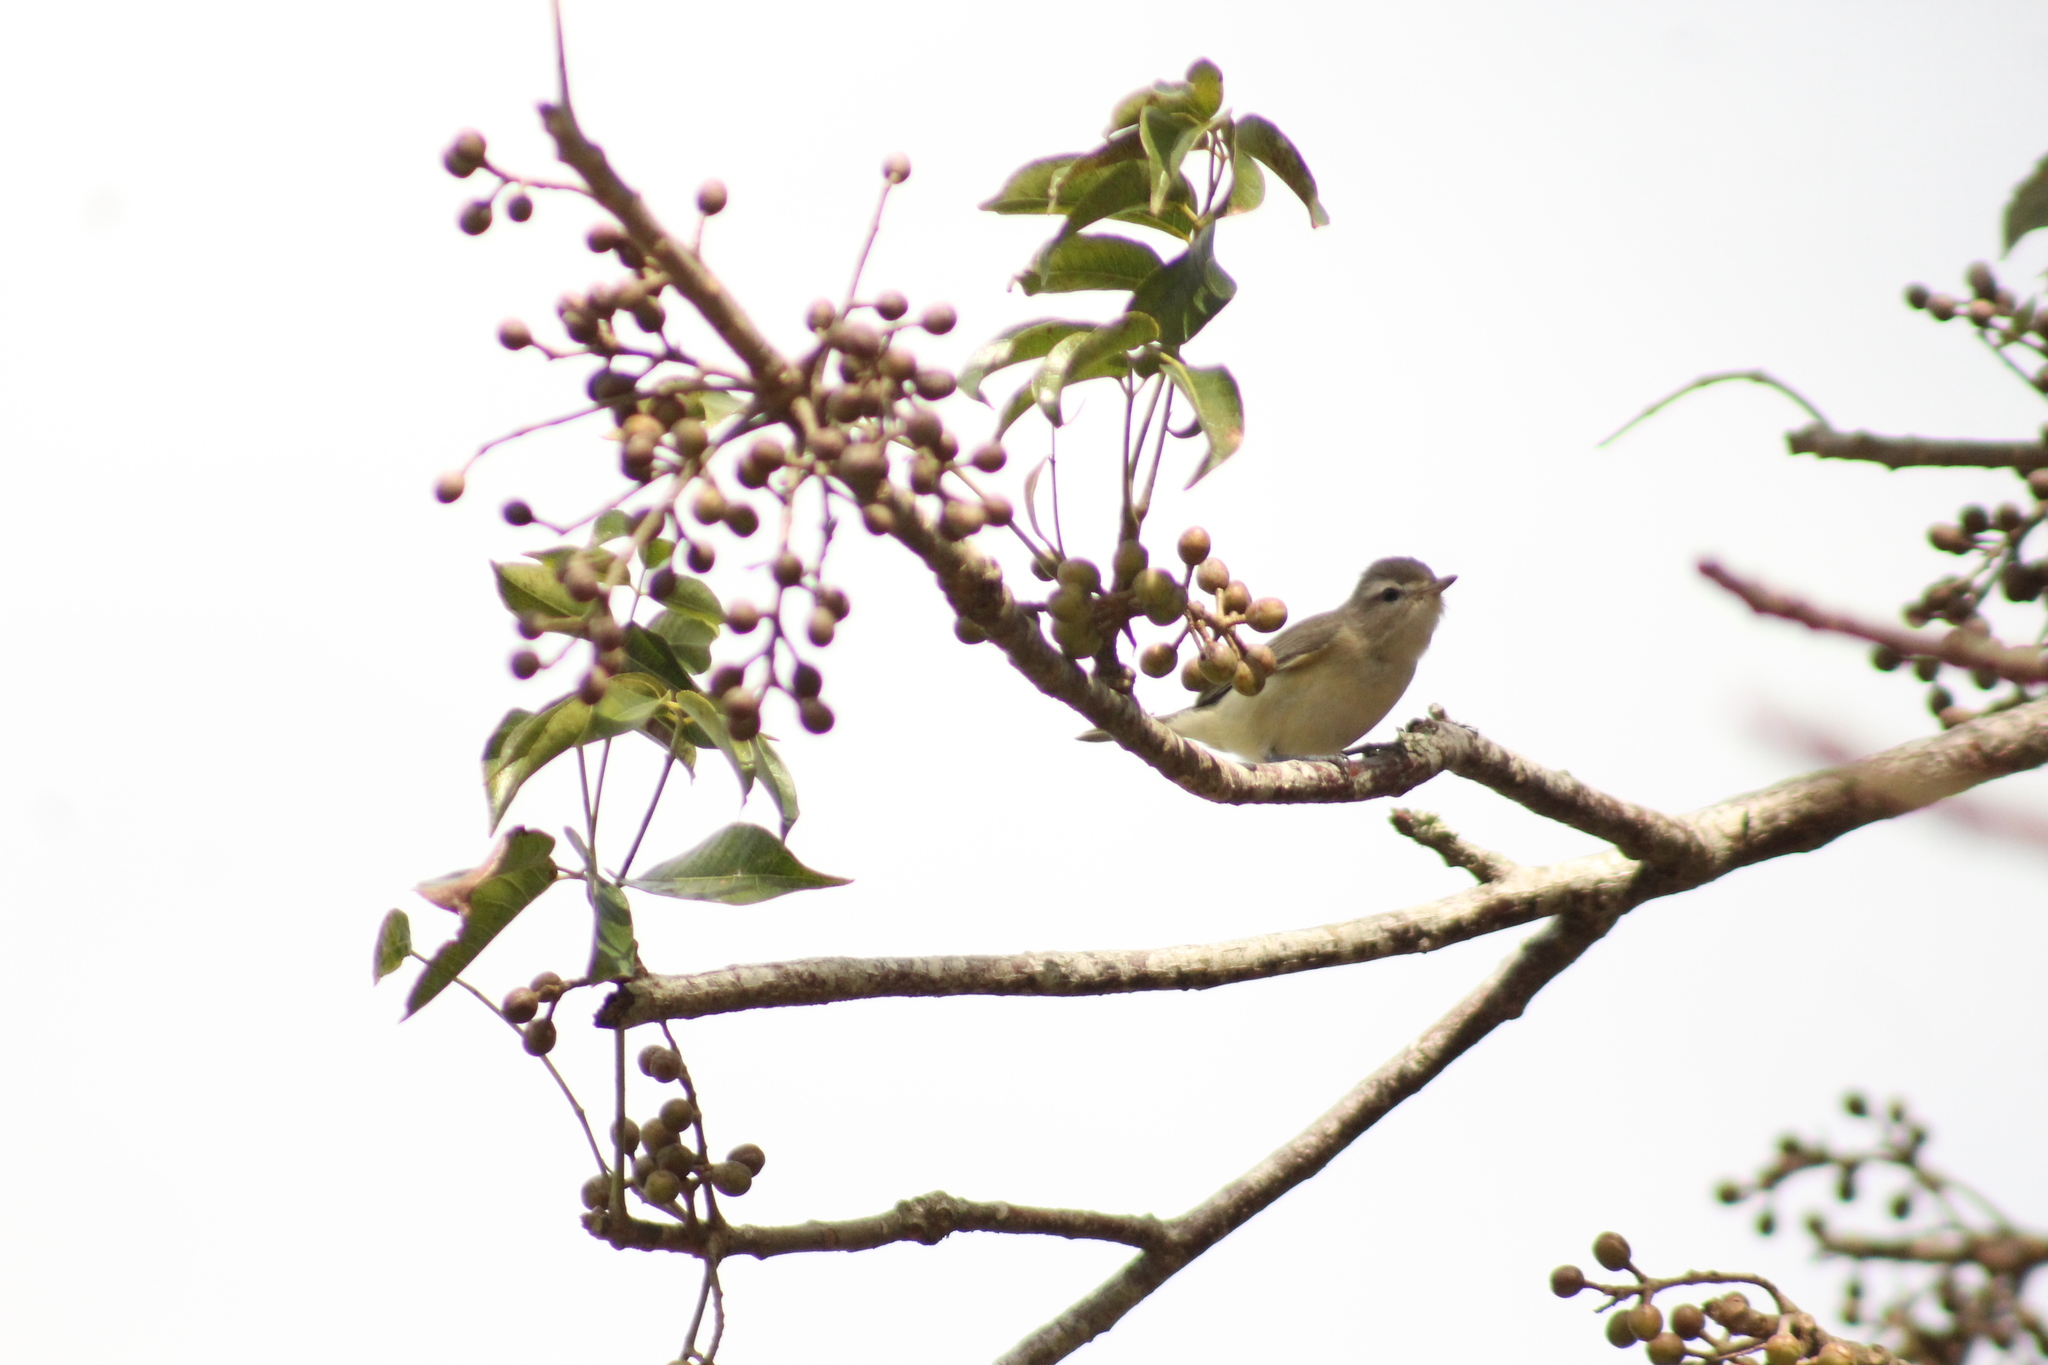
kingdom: Animalia
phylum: Chordata
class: Aves
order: Passeriformes
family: Vireonidae
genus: Vireo
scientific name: Vireo gilvus
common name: Warbling vireo
